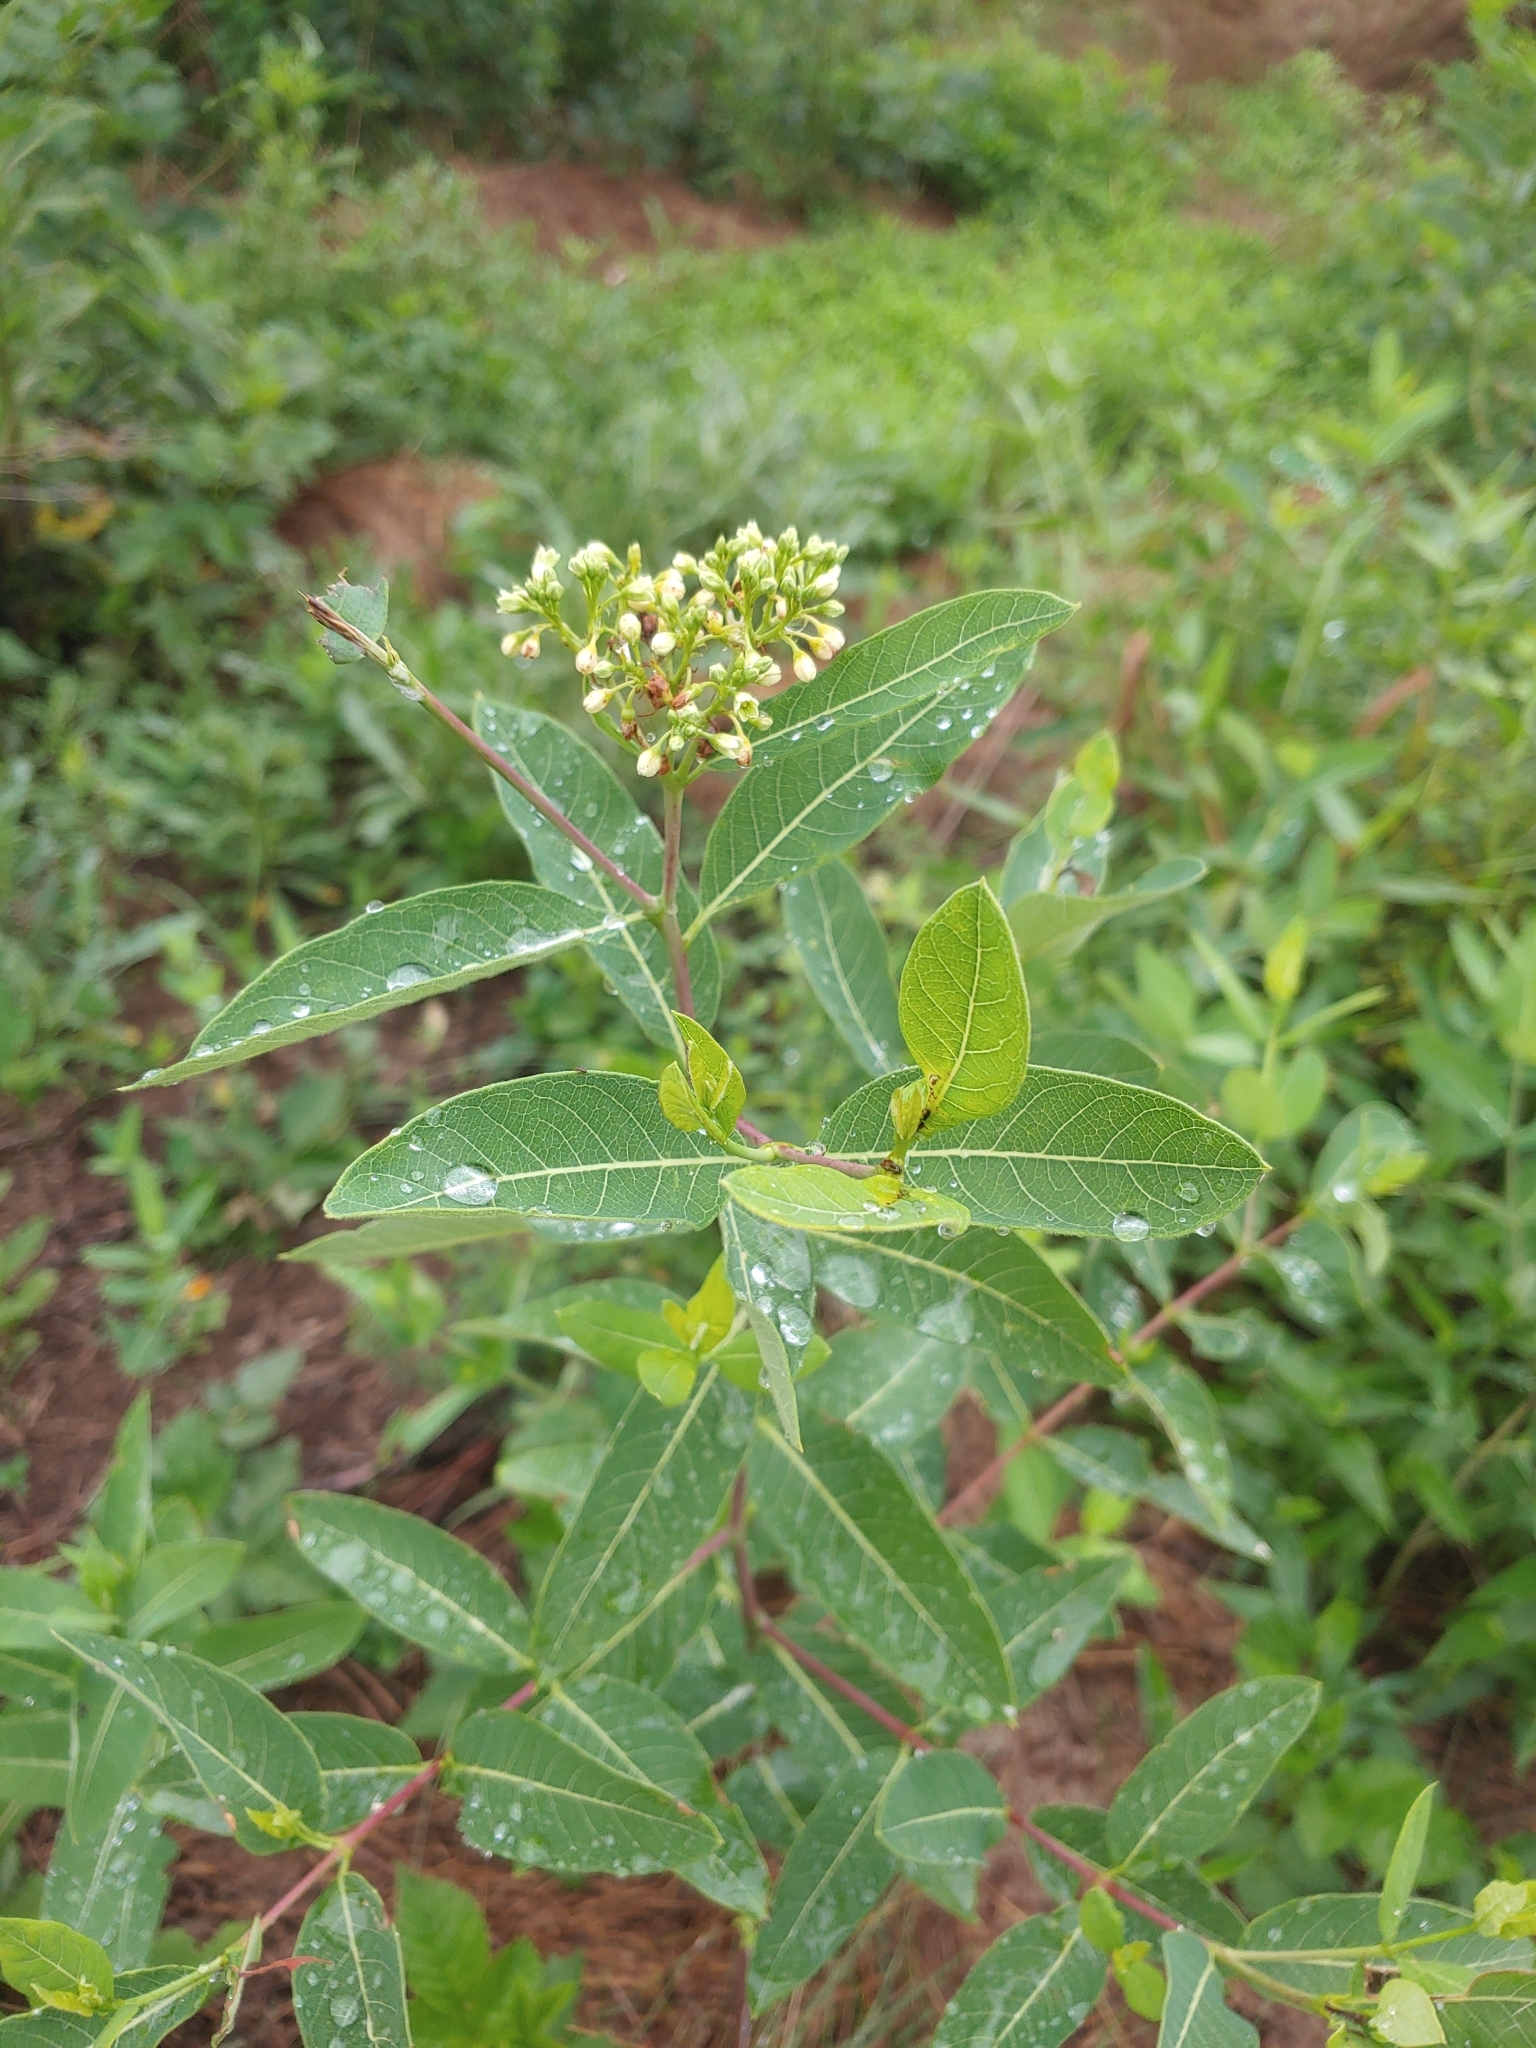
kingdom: Plantae
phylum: Tracheophyta
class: Magnoliopsida
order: Gentianales
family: Apocynaceae
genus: Apocynum
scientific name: Apocynum cannabinum
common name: Hemp dogbane
